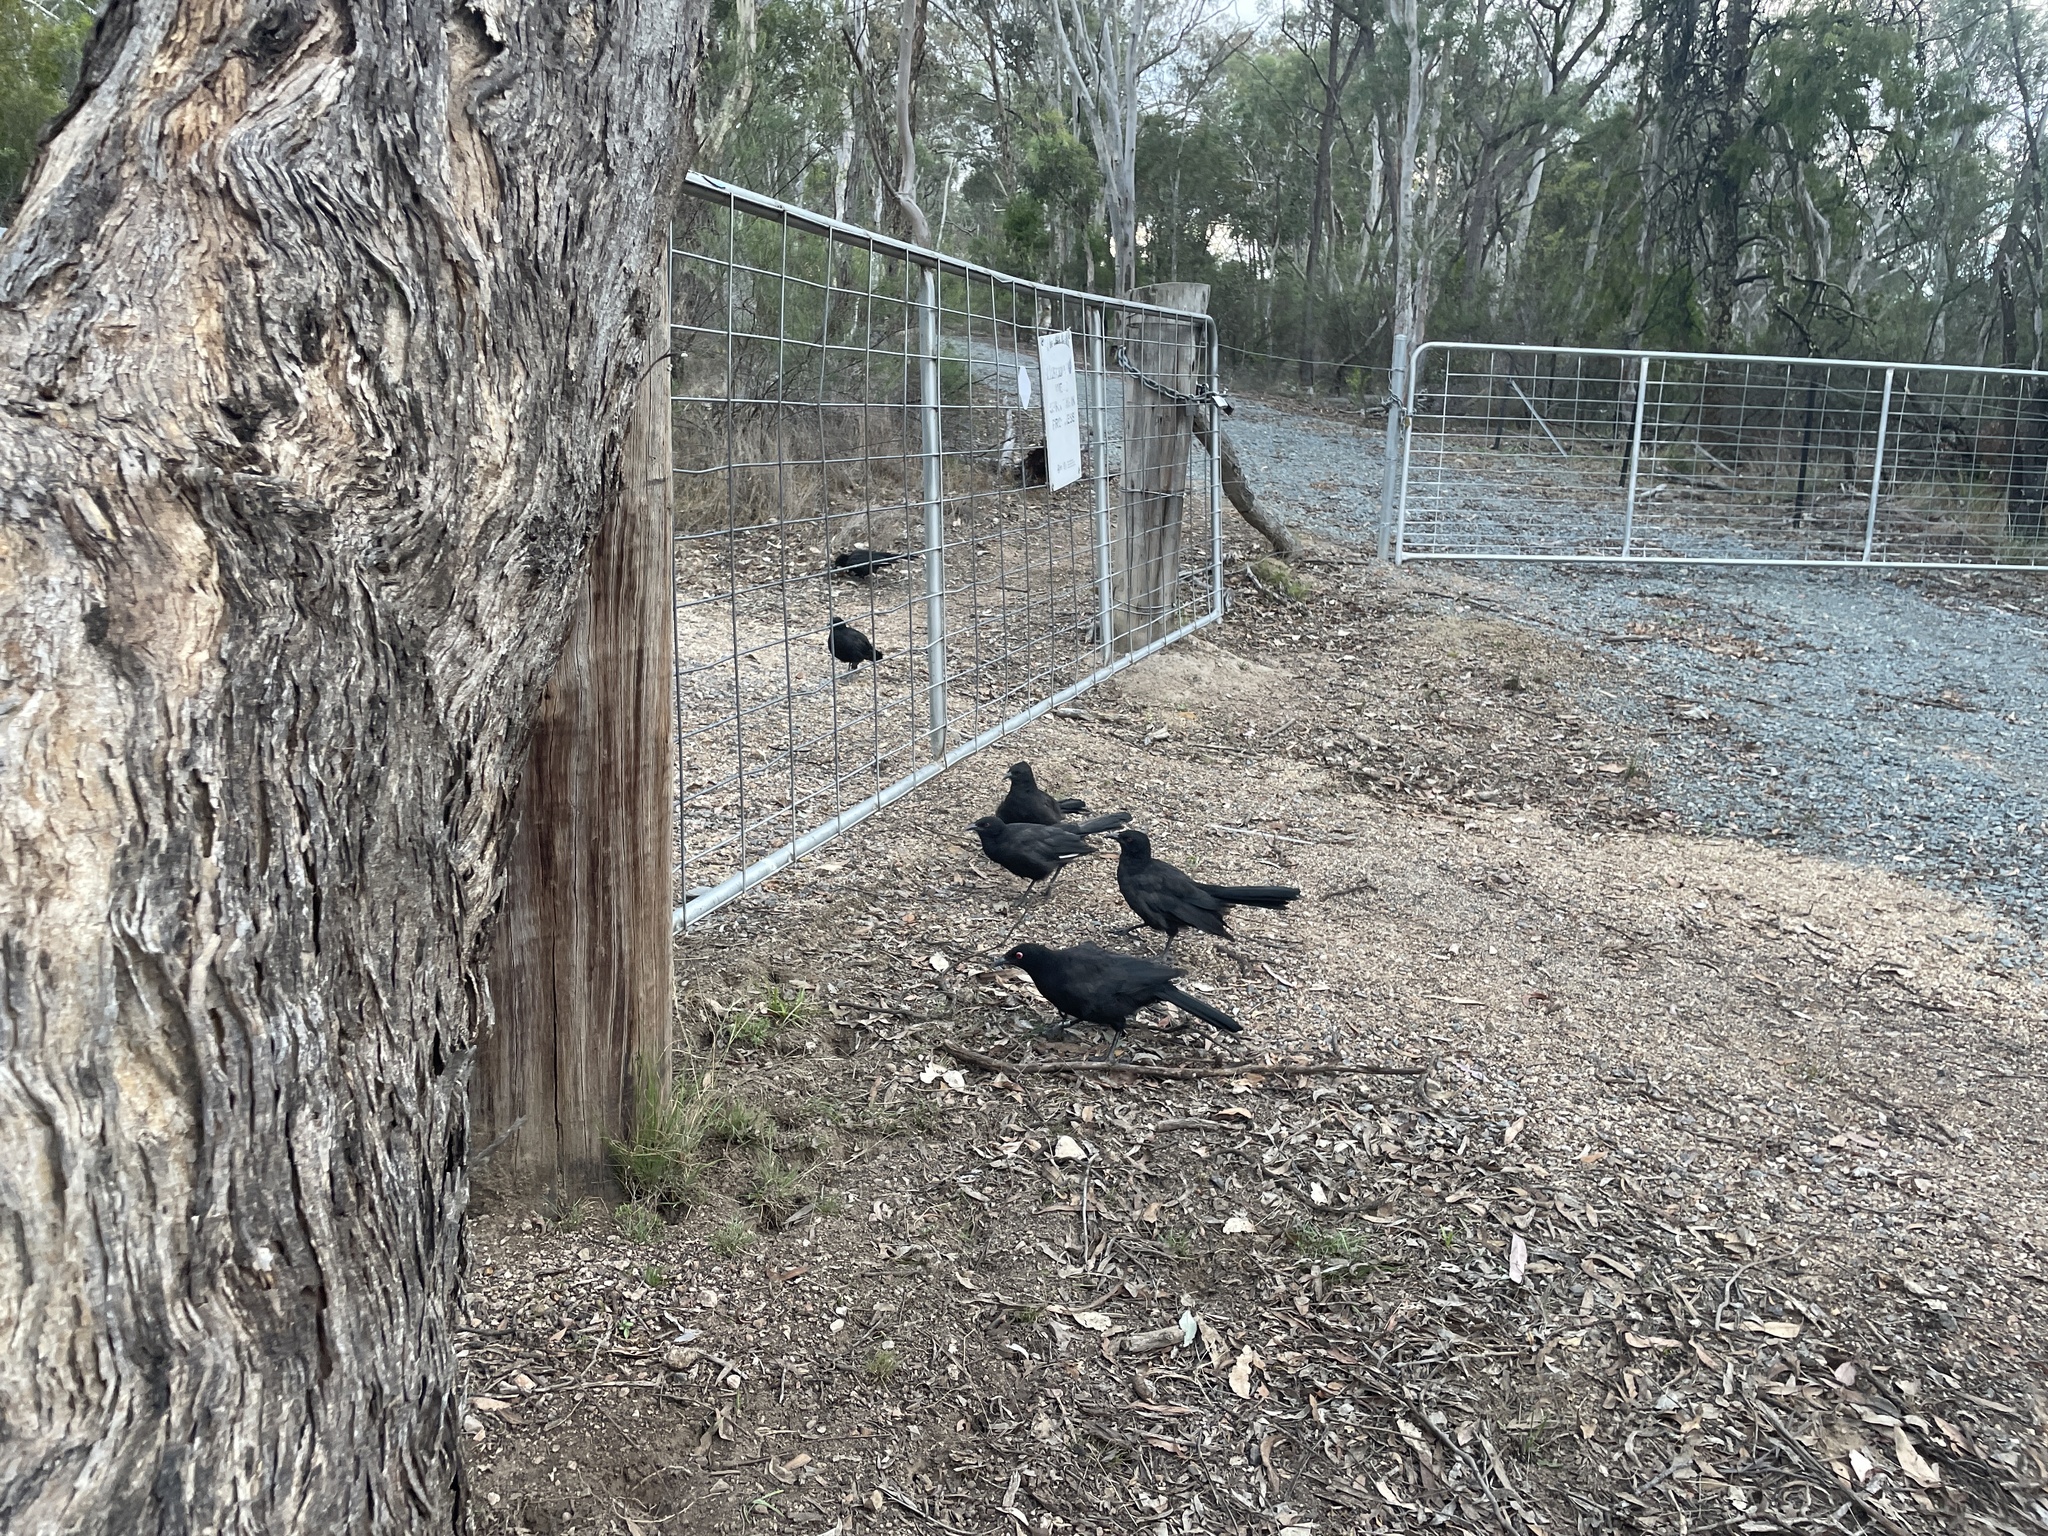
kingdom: Animalia
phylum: Chordata
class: Aves
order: Passeriformes
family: Corcoracidae
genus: Corcorax
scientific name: Corcorax melanoramphos
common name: White-winged chough
